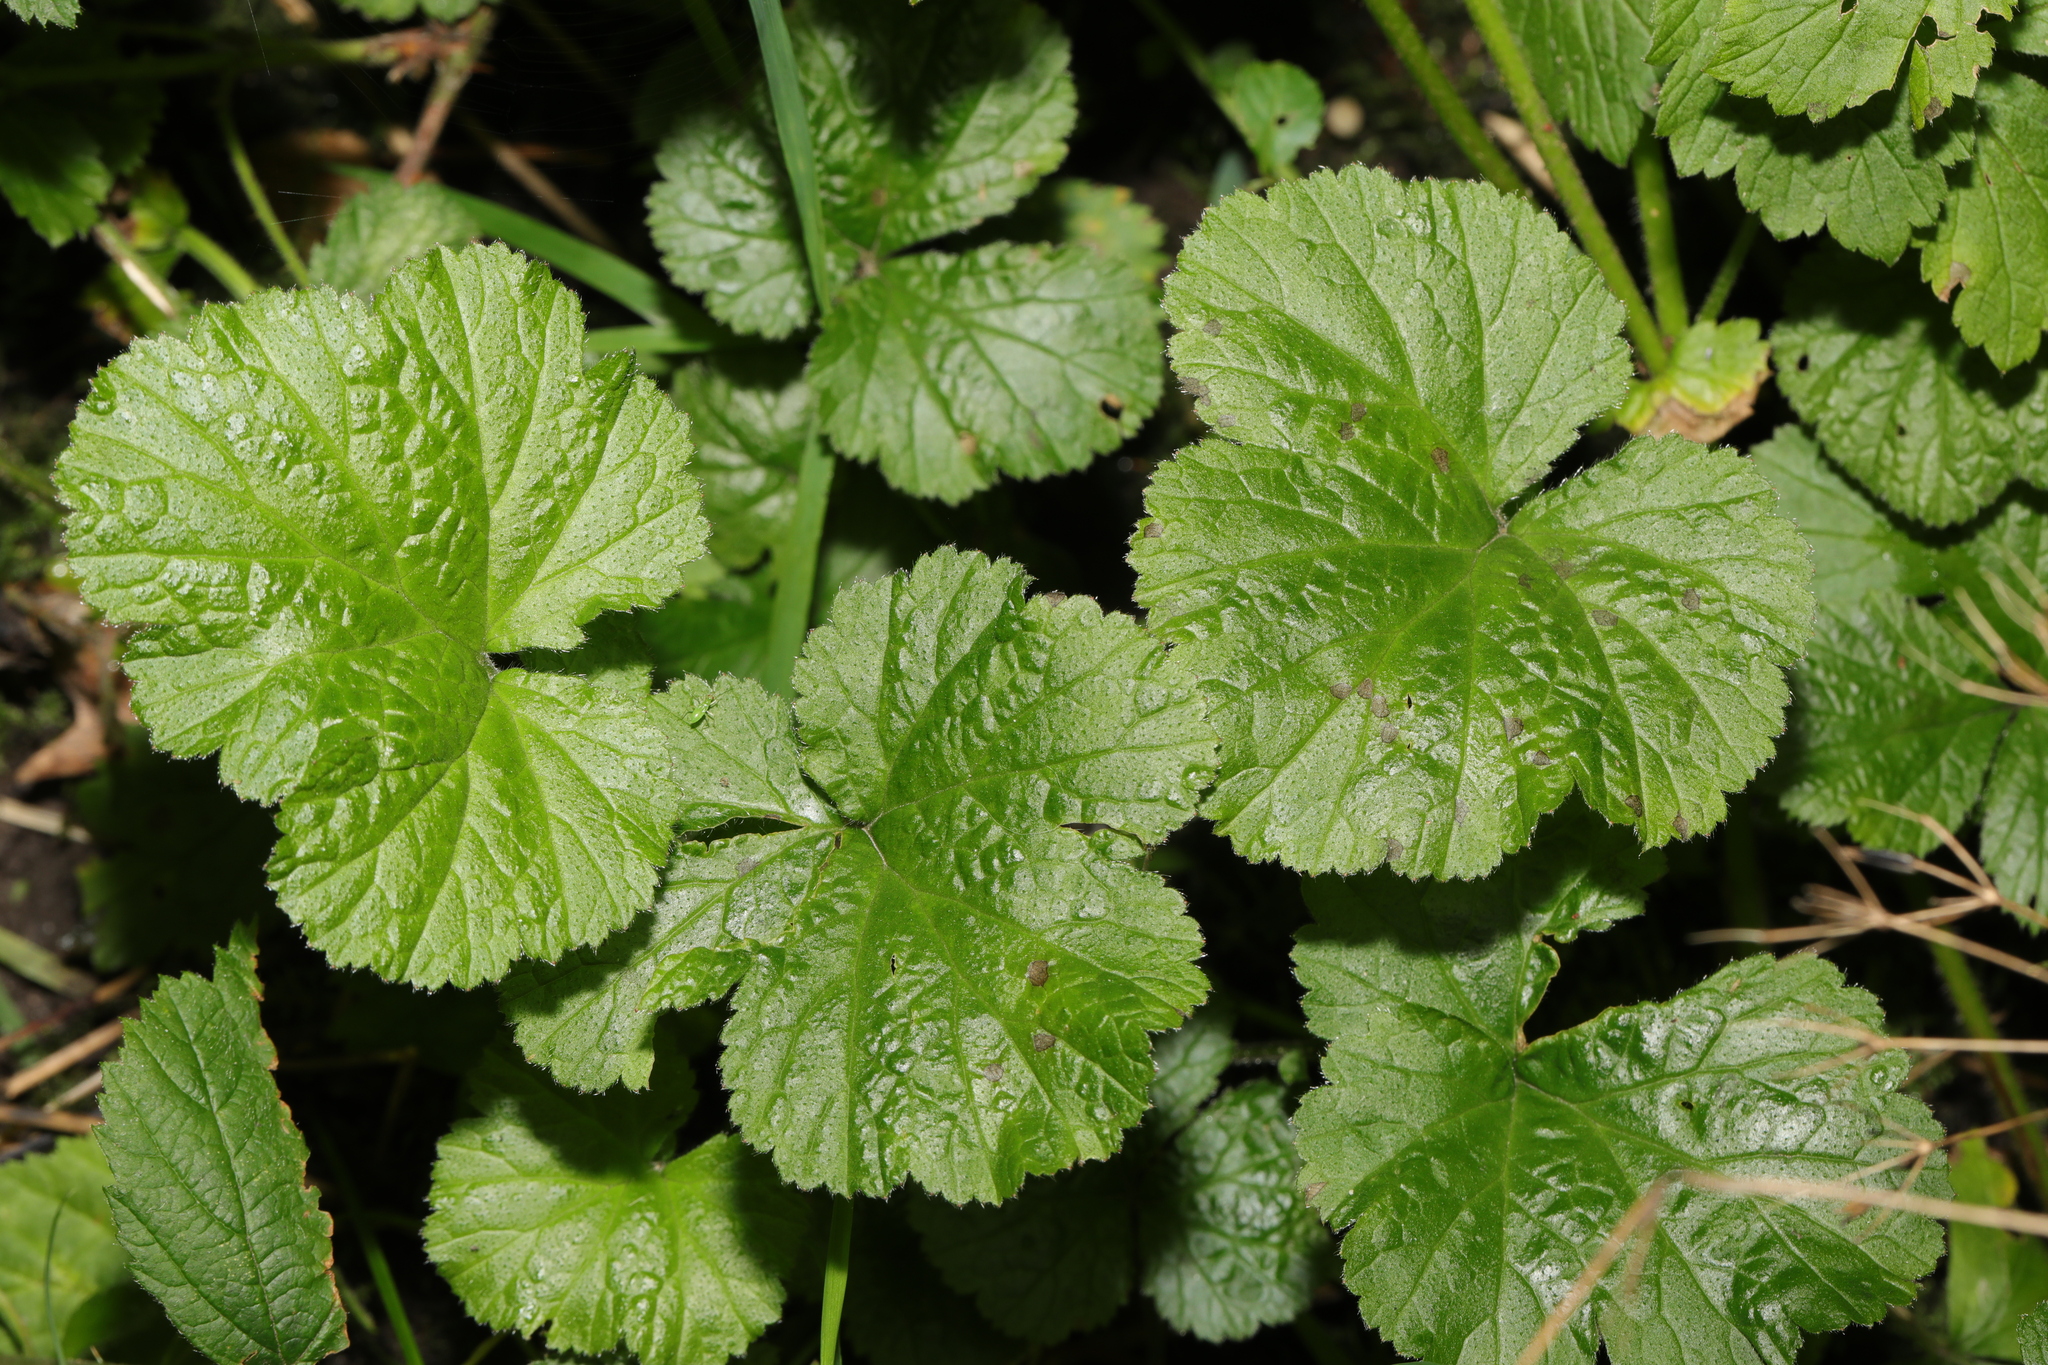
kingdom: Plantae
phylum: Tracheophyta
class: Magnoliopsida
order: Rosales
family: Rosaceae
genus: Geum
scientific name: Geum urbanum
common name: Wood avens
